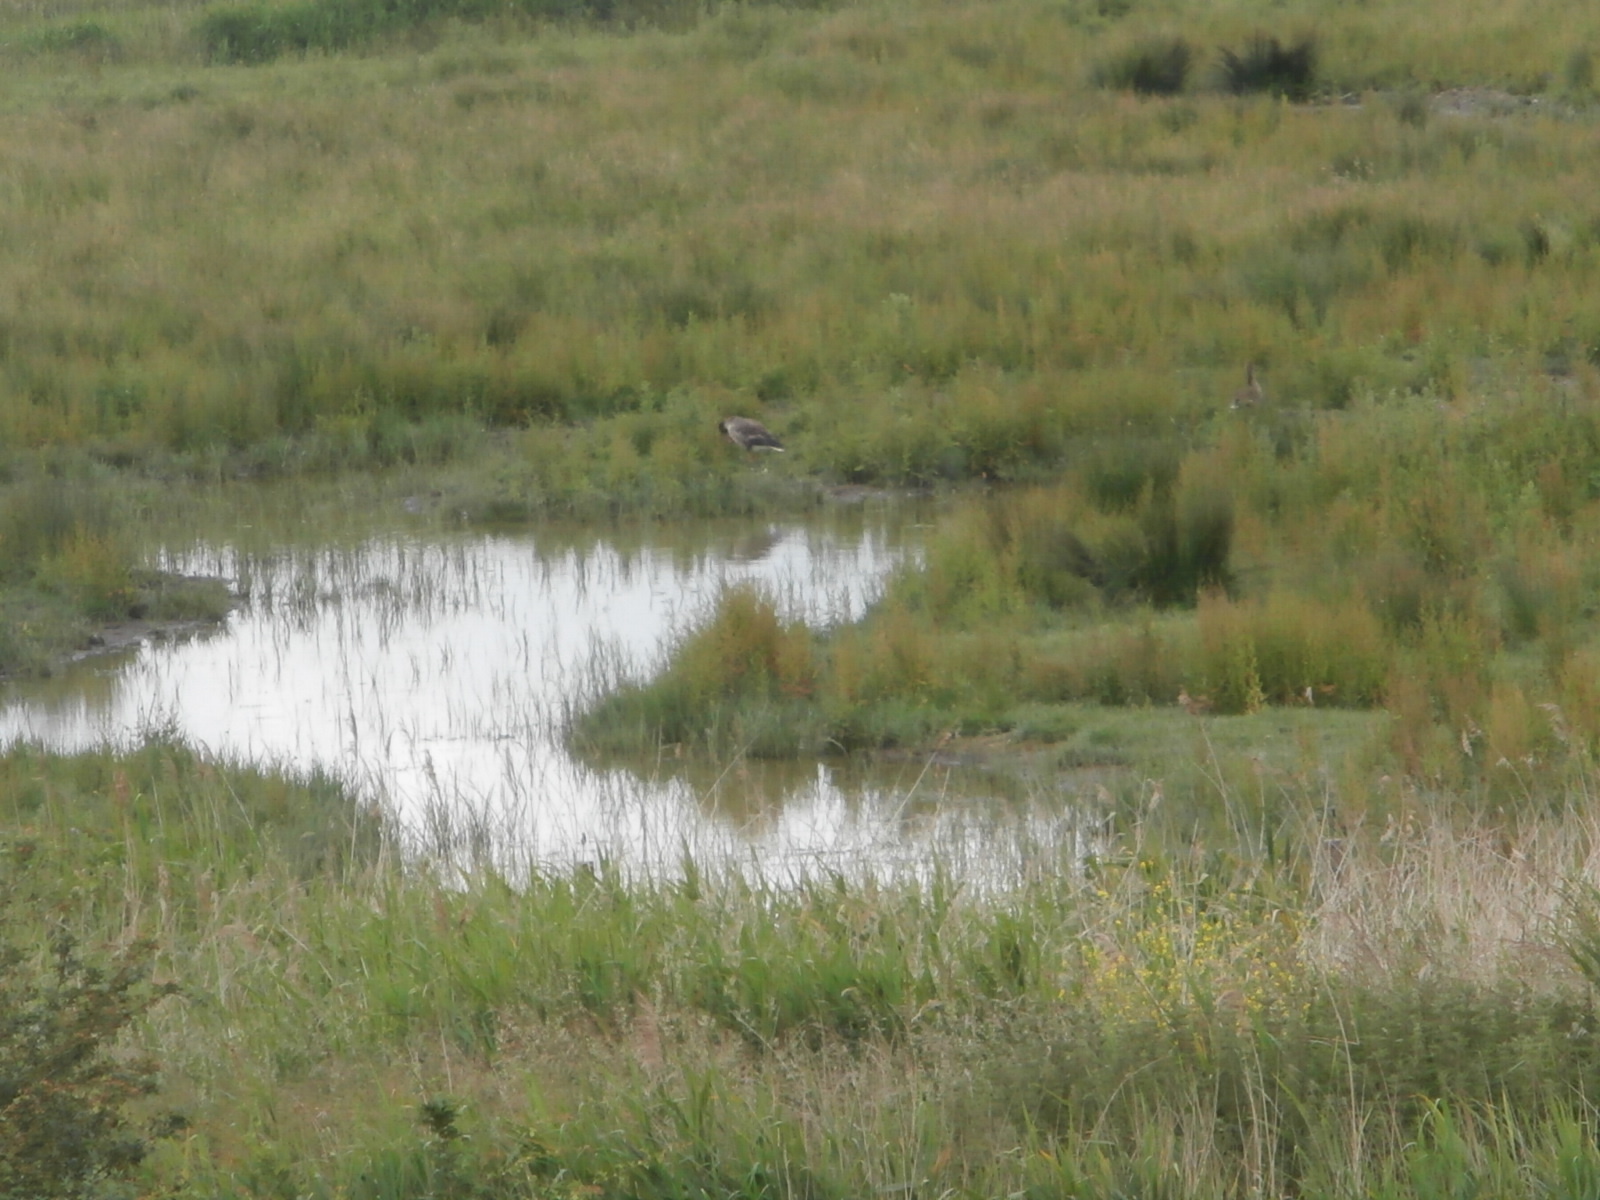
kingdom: Animalia
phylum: Chordata
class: Aves
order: Anseriformes
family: Anatidae
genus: Anser
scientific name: Anser anser
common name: Greylag goose
